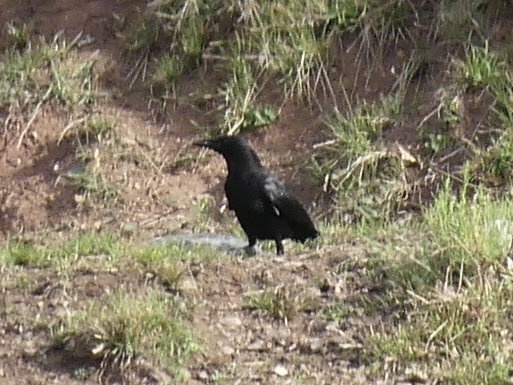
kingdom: Animalia
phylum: Chordata
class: Aves
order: Passeriformes
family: Corvidae
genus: Corvus
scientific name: Corvus corone
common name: Carrion crow
